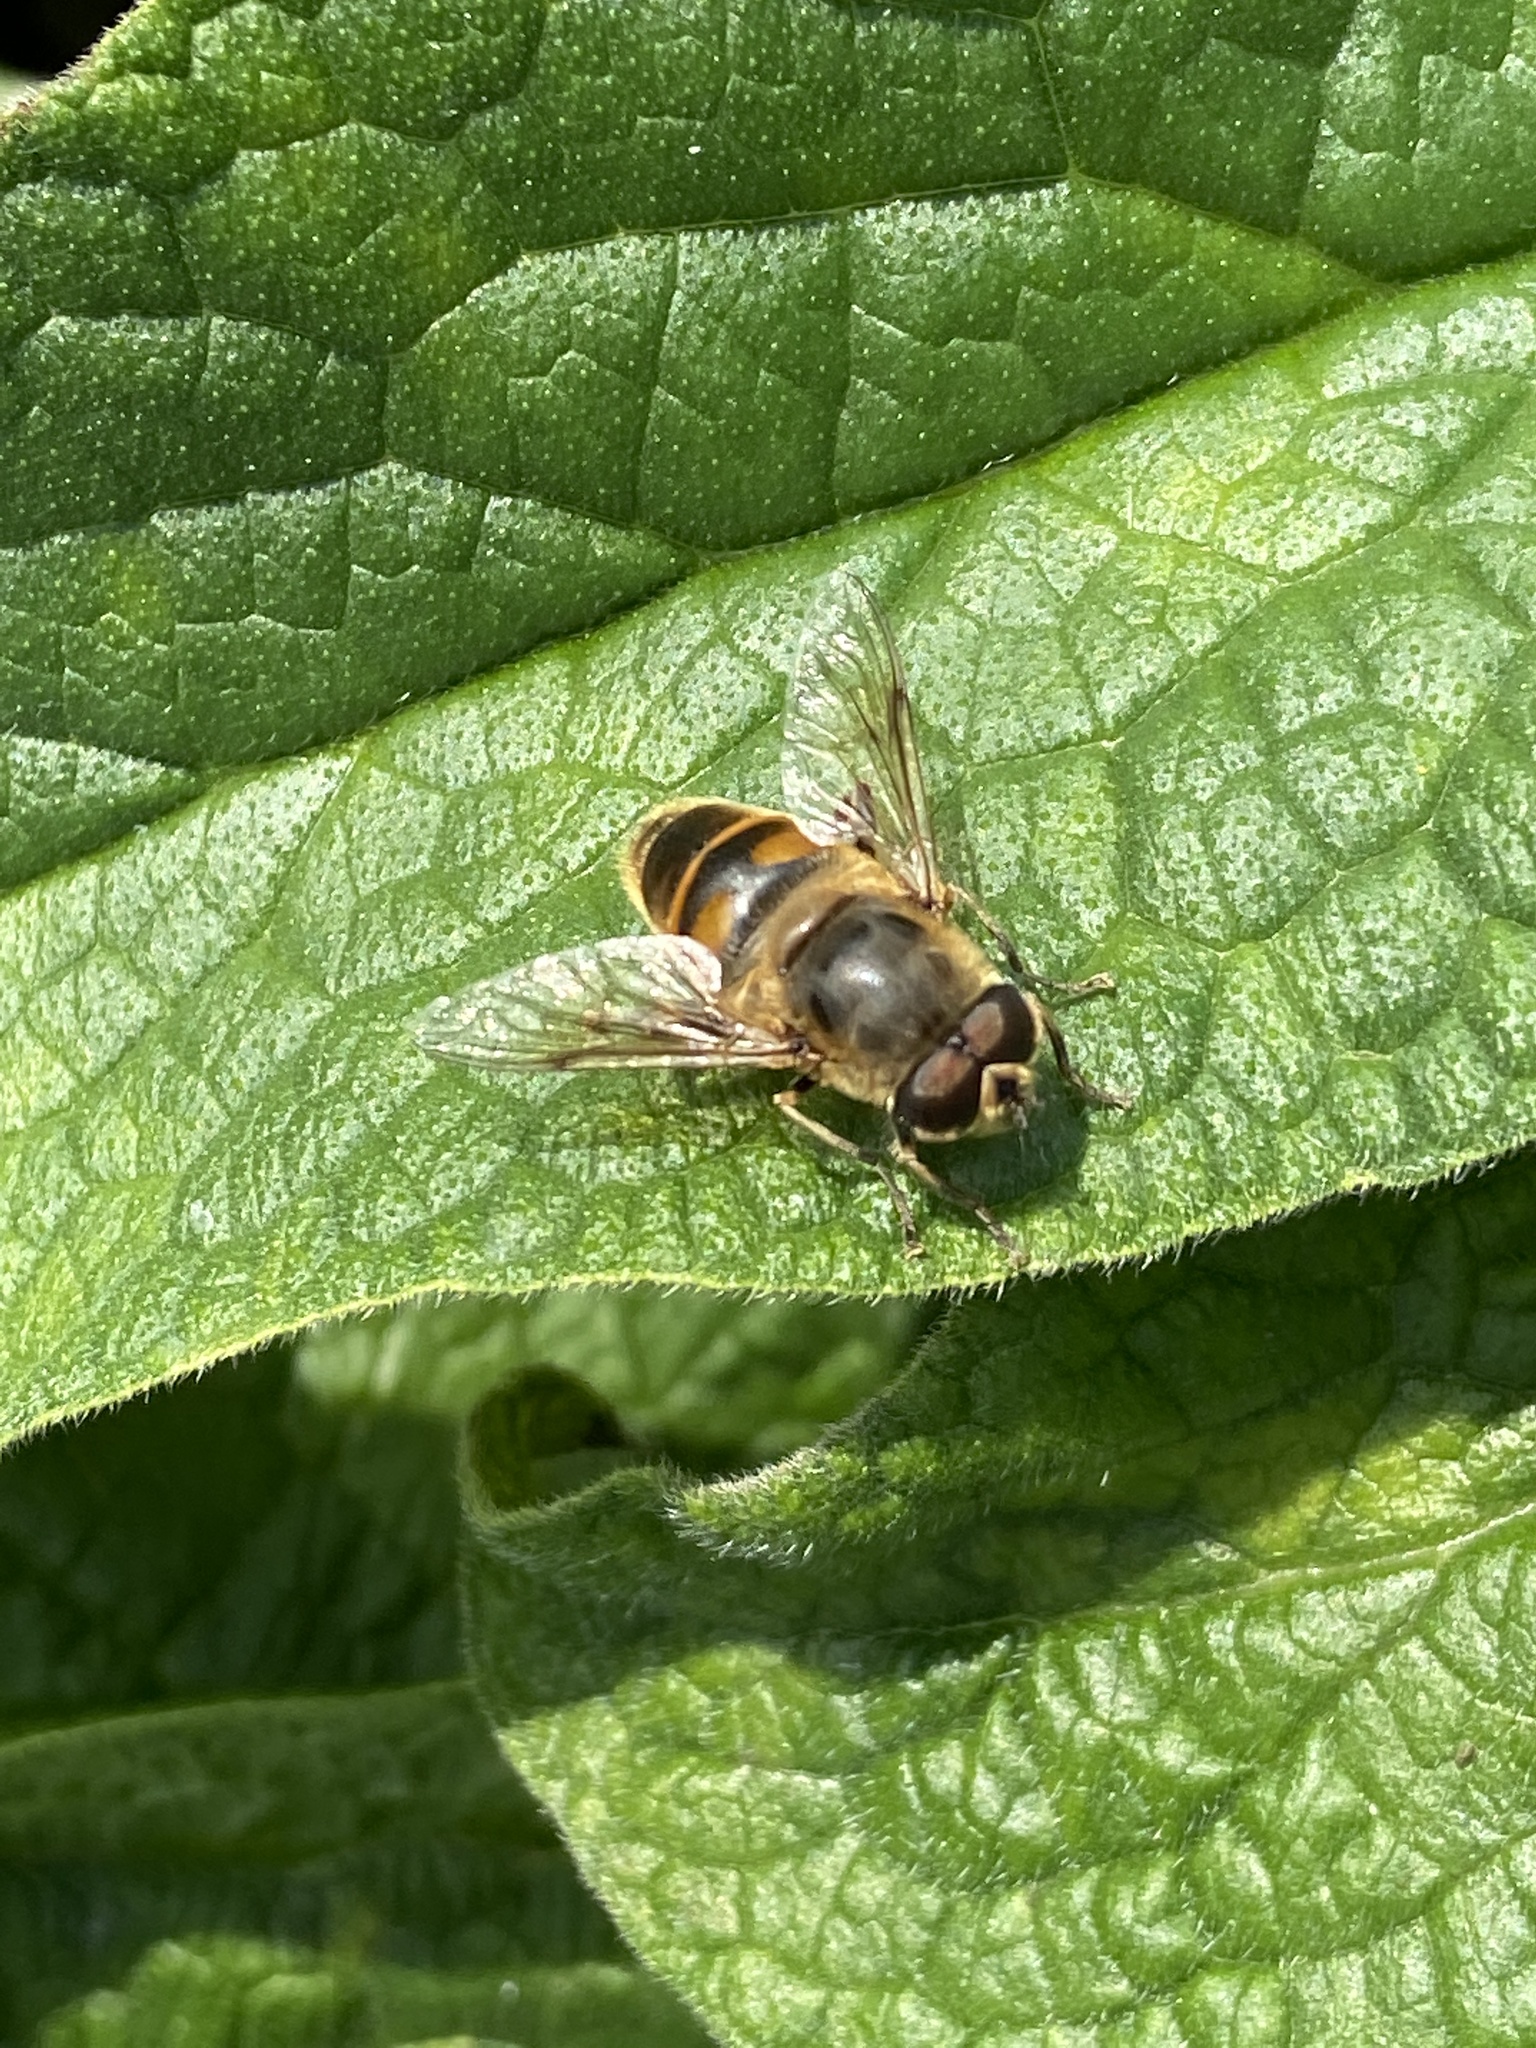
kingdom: Animalia
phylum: Arthropoda
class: Insecta
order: Diptera
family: Syrphidae
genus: Eristalis
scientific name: Eristalis tenax
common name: Drone fly
